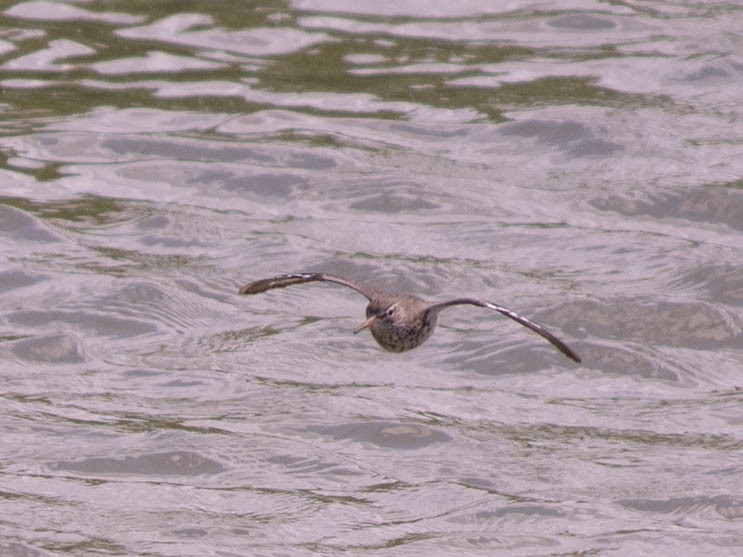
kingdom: Animalia
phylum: Chordata
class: Aves
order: Charadriiformes
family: Scolopacidae
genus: Actitis
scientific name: Actitis macularius
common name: Spotted sandpiper
